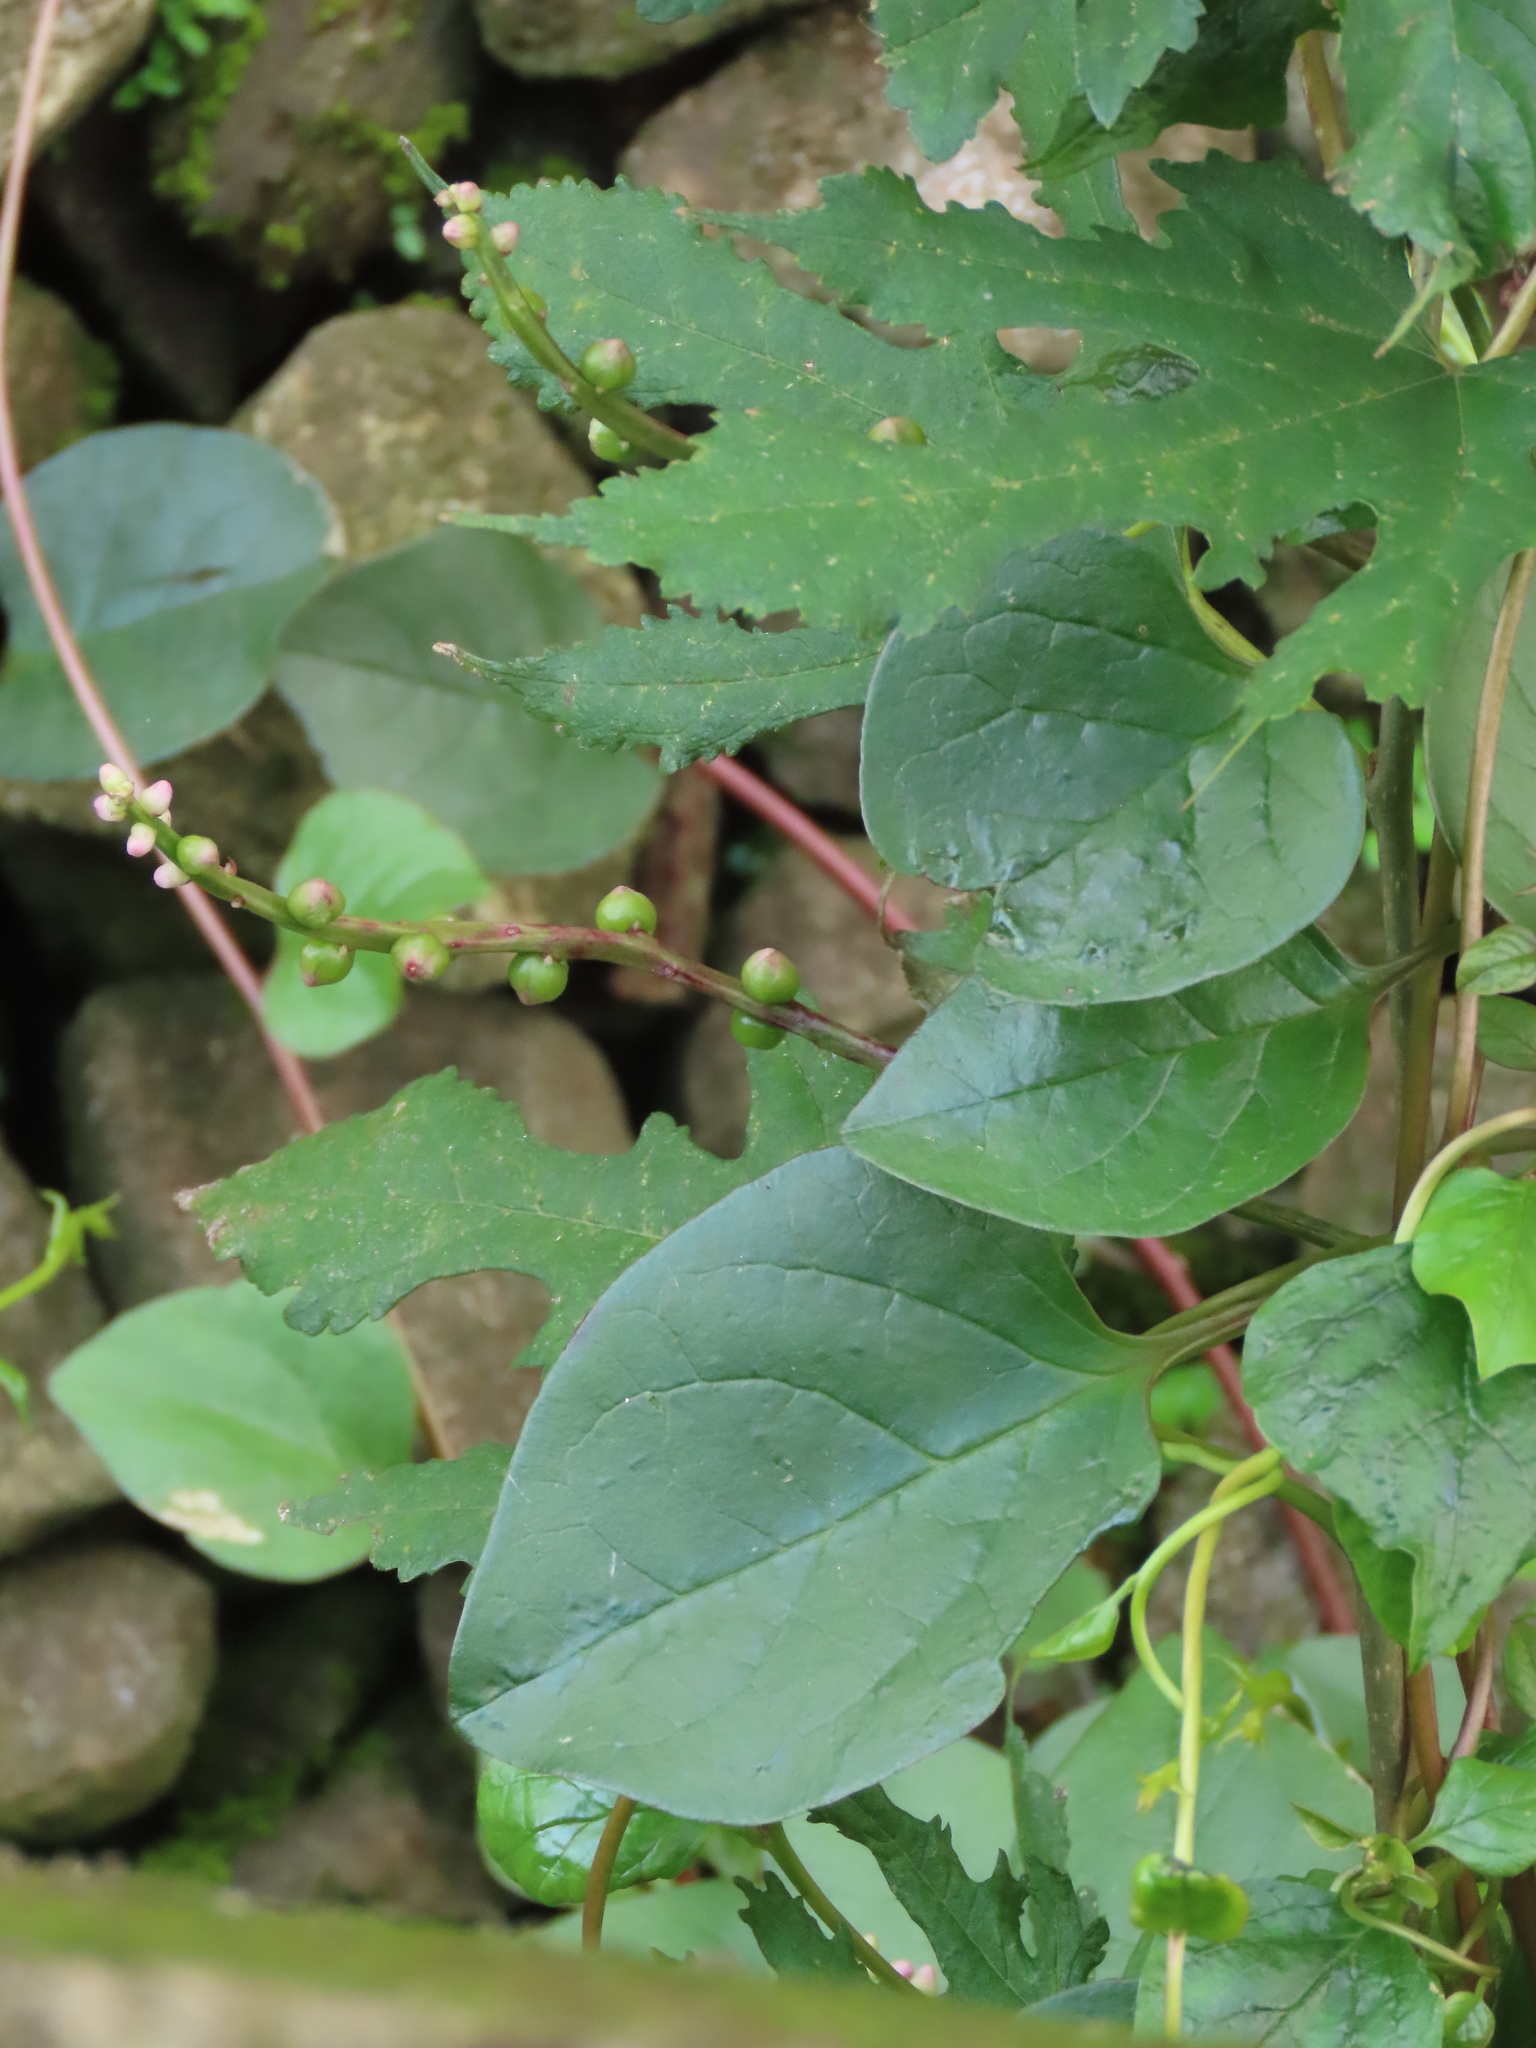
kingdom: Plantae
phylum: Tracheophyta
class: Magnoliopsida
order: Caryophyllales
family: Basellaceae
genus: Basella
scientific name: Basella alba
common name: Indian spinach
